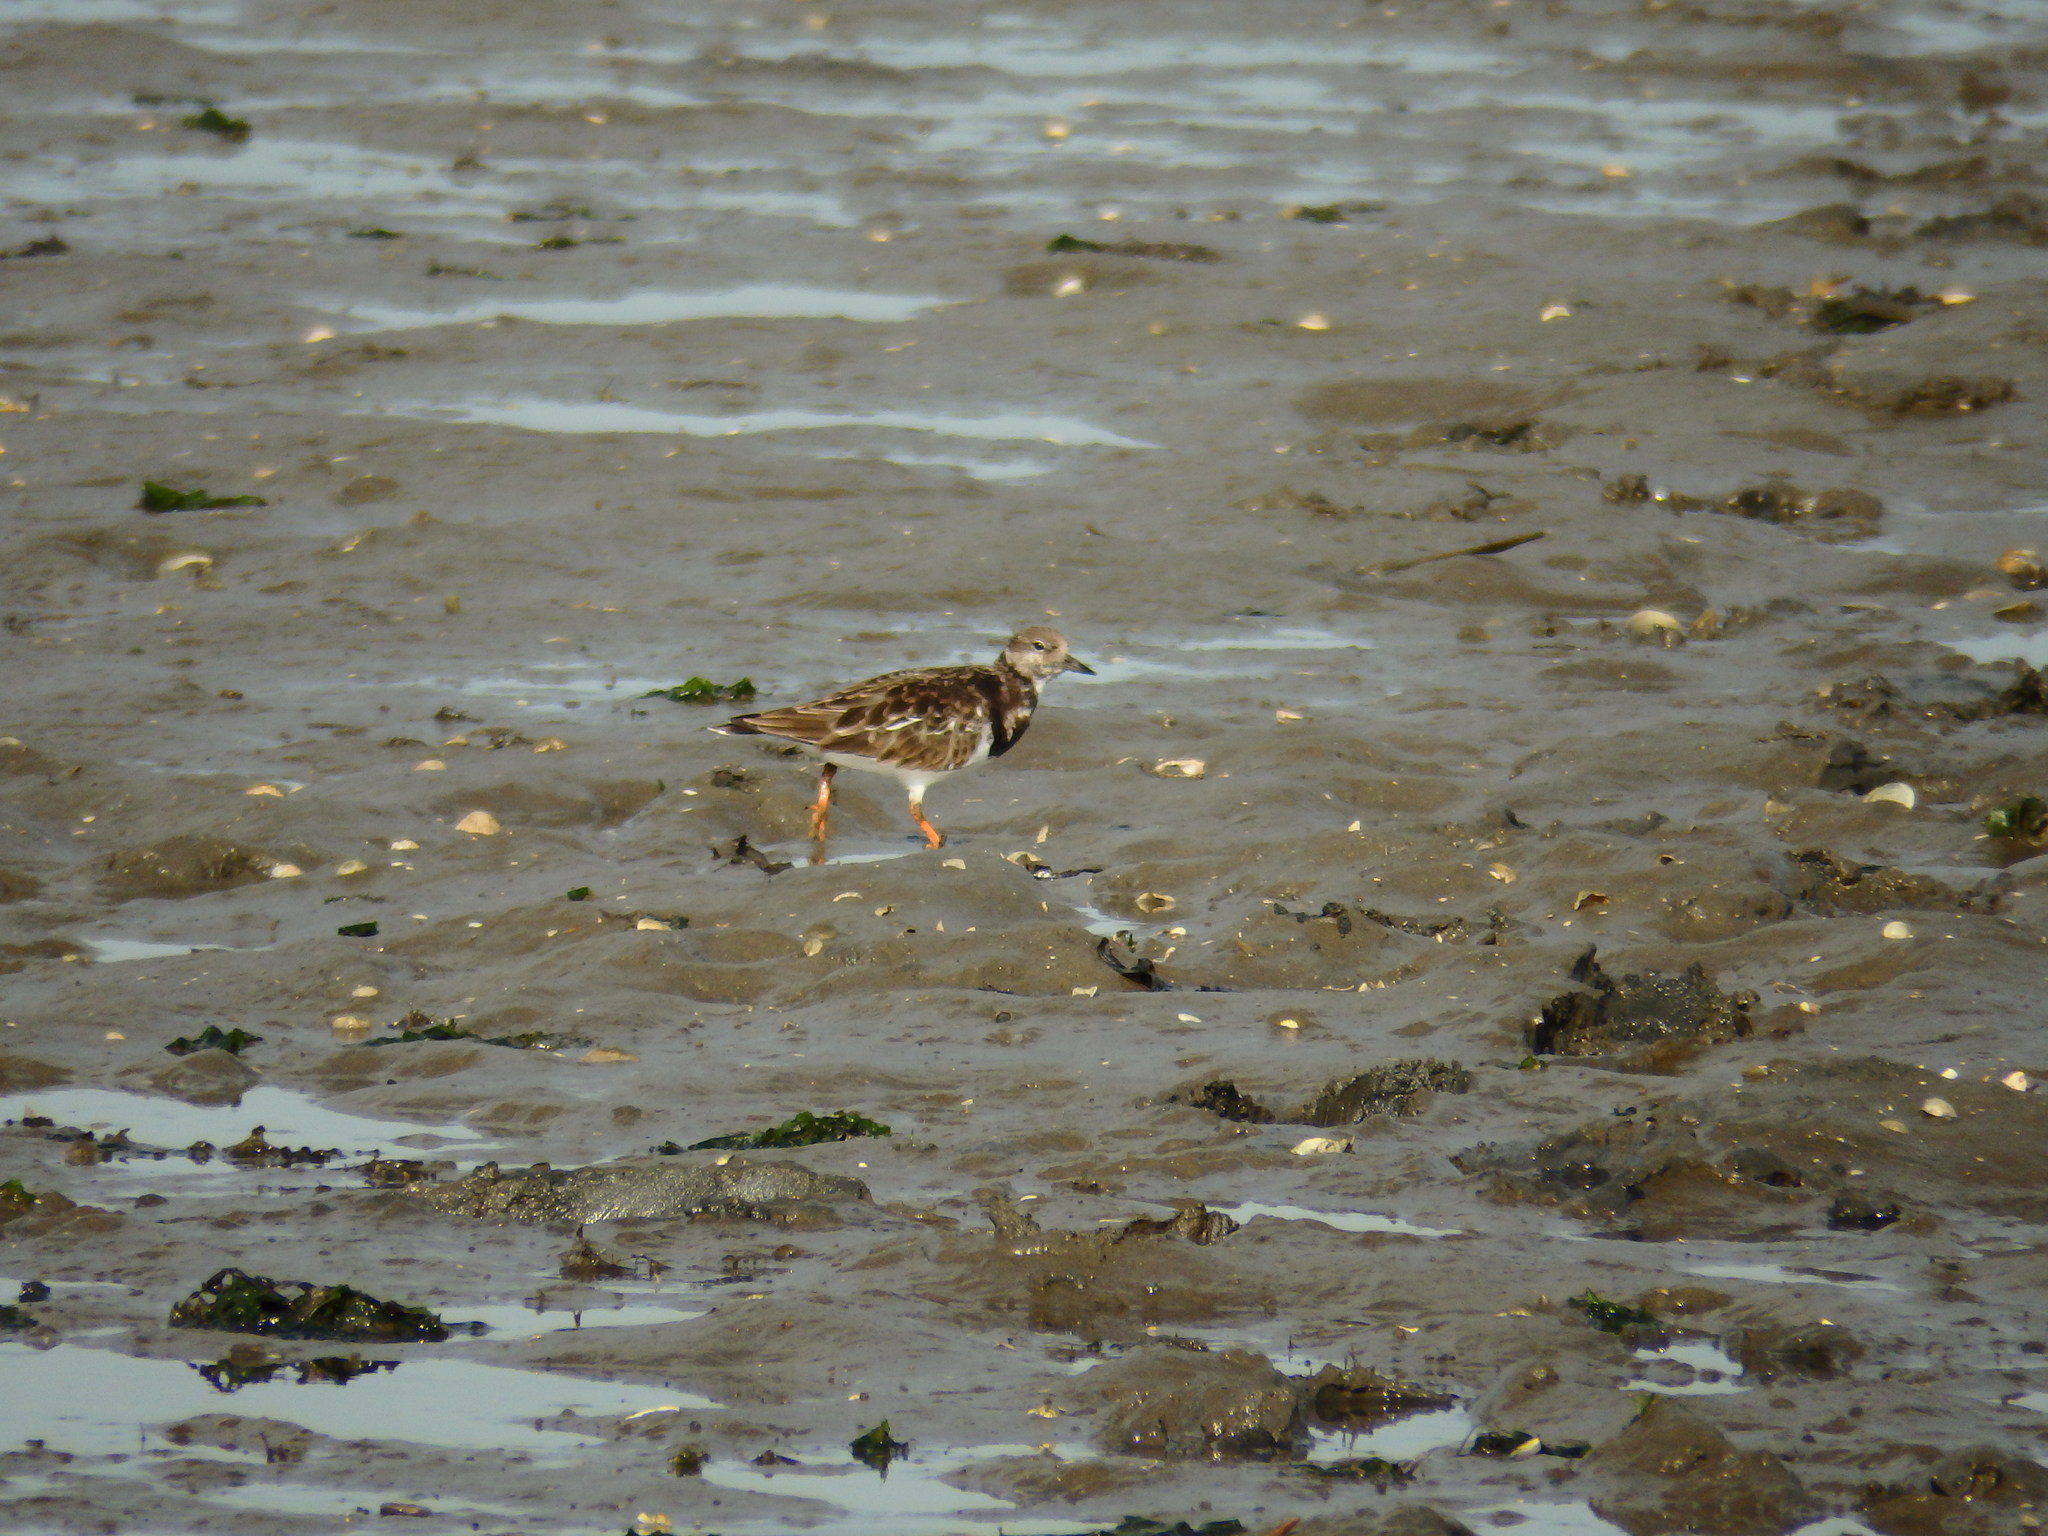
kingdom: Animalia
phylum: Chordata
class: Aves
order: Charadriiformes
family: Scolopacidae
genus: Arenaria
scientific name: Arenaria interpres
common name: Ruddy turnstone
